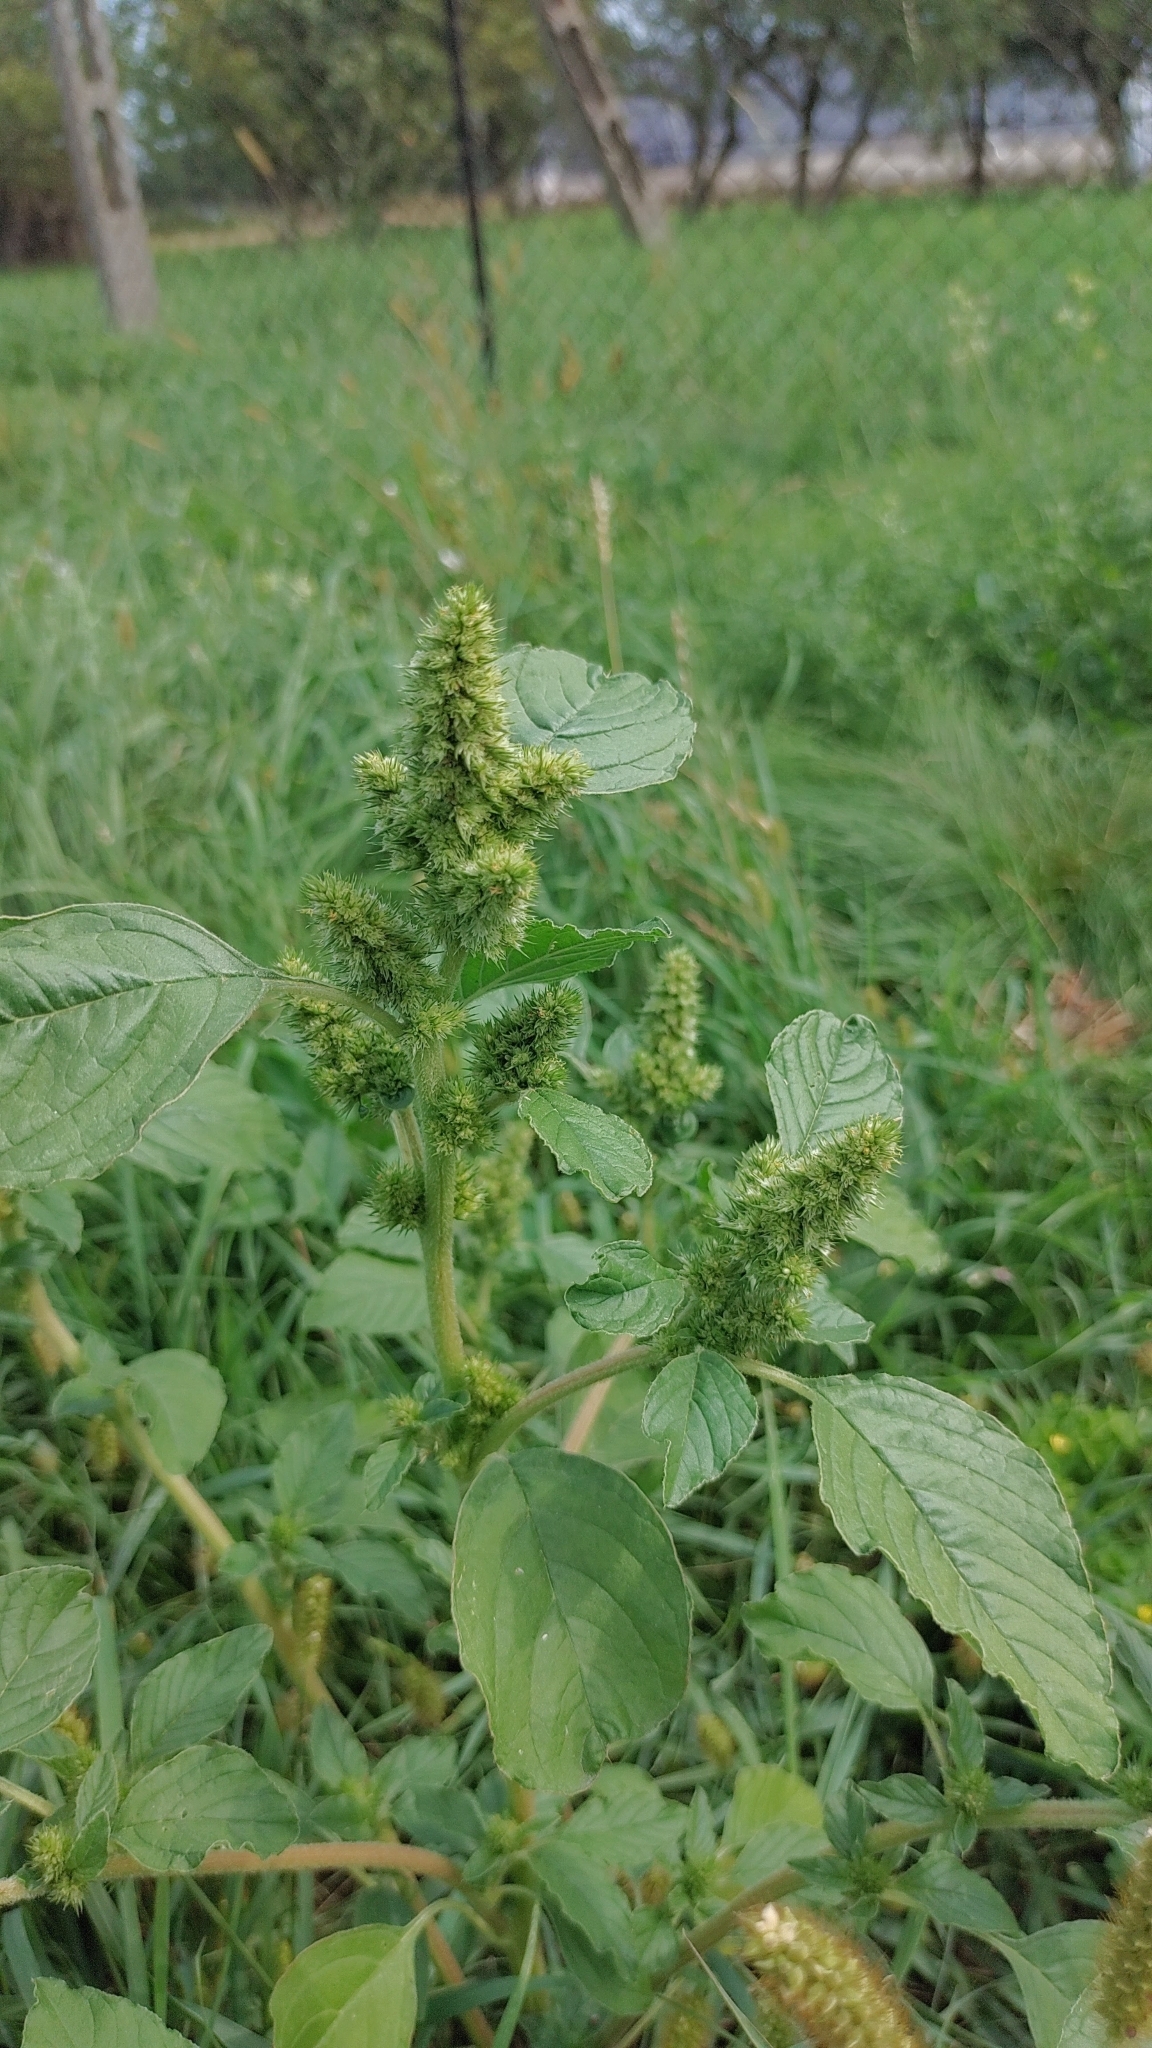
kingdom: Plantae
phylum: Tracheophyta
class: Magnoliopsida
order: Caryophyllales
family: Amaranthaceae
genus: Amaranthus
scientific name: Amaranthus retroflexus
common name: Redroot amaranth
